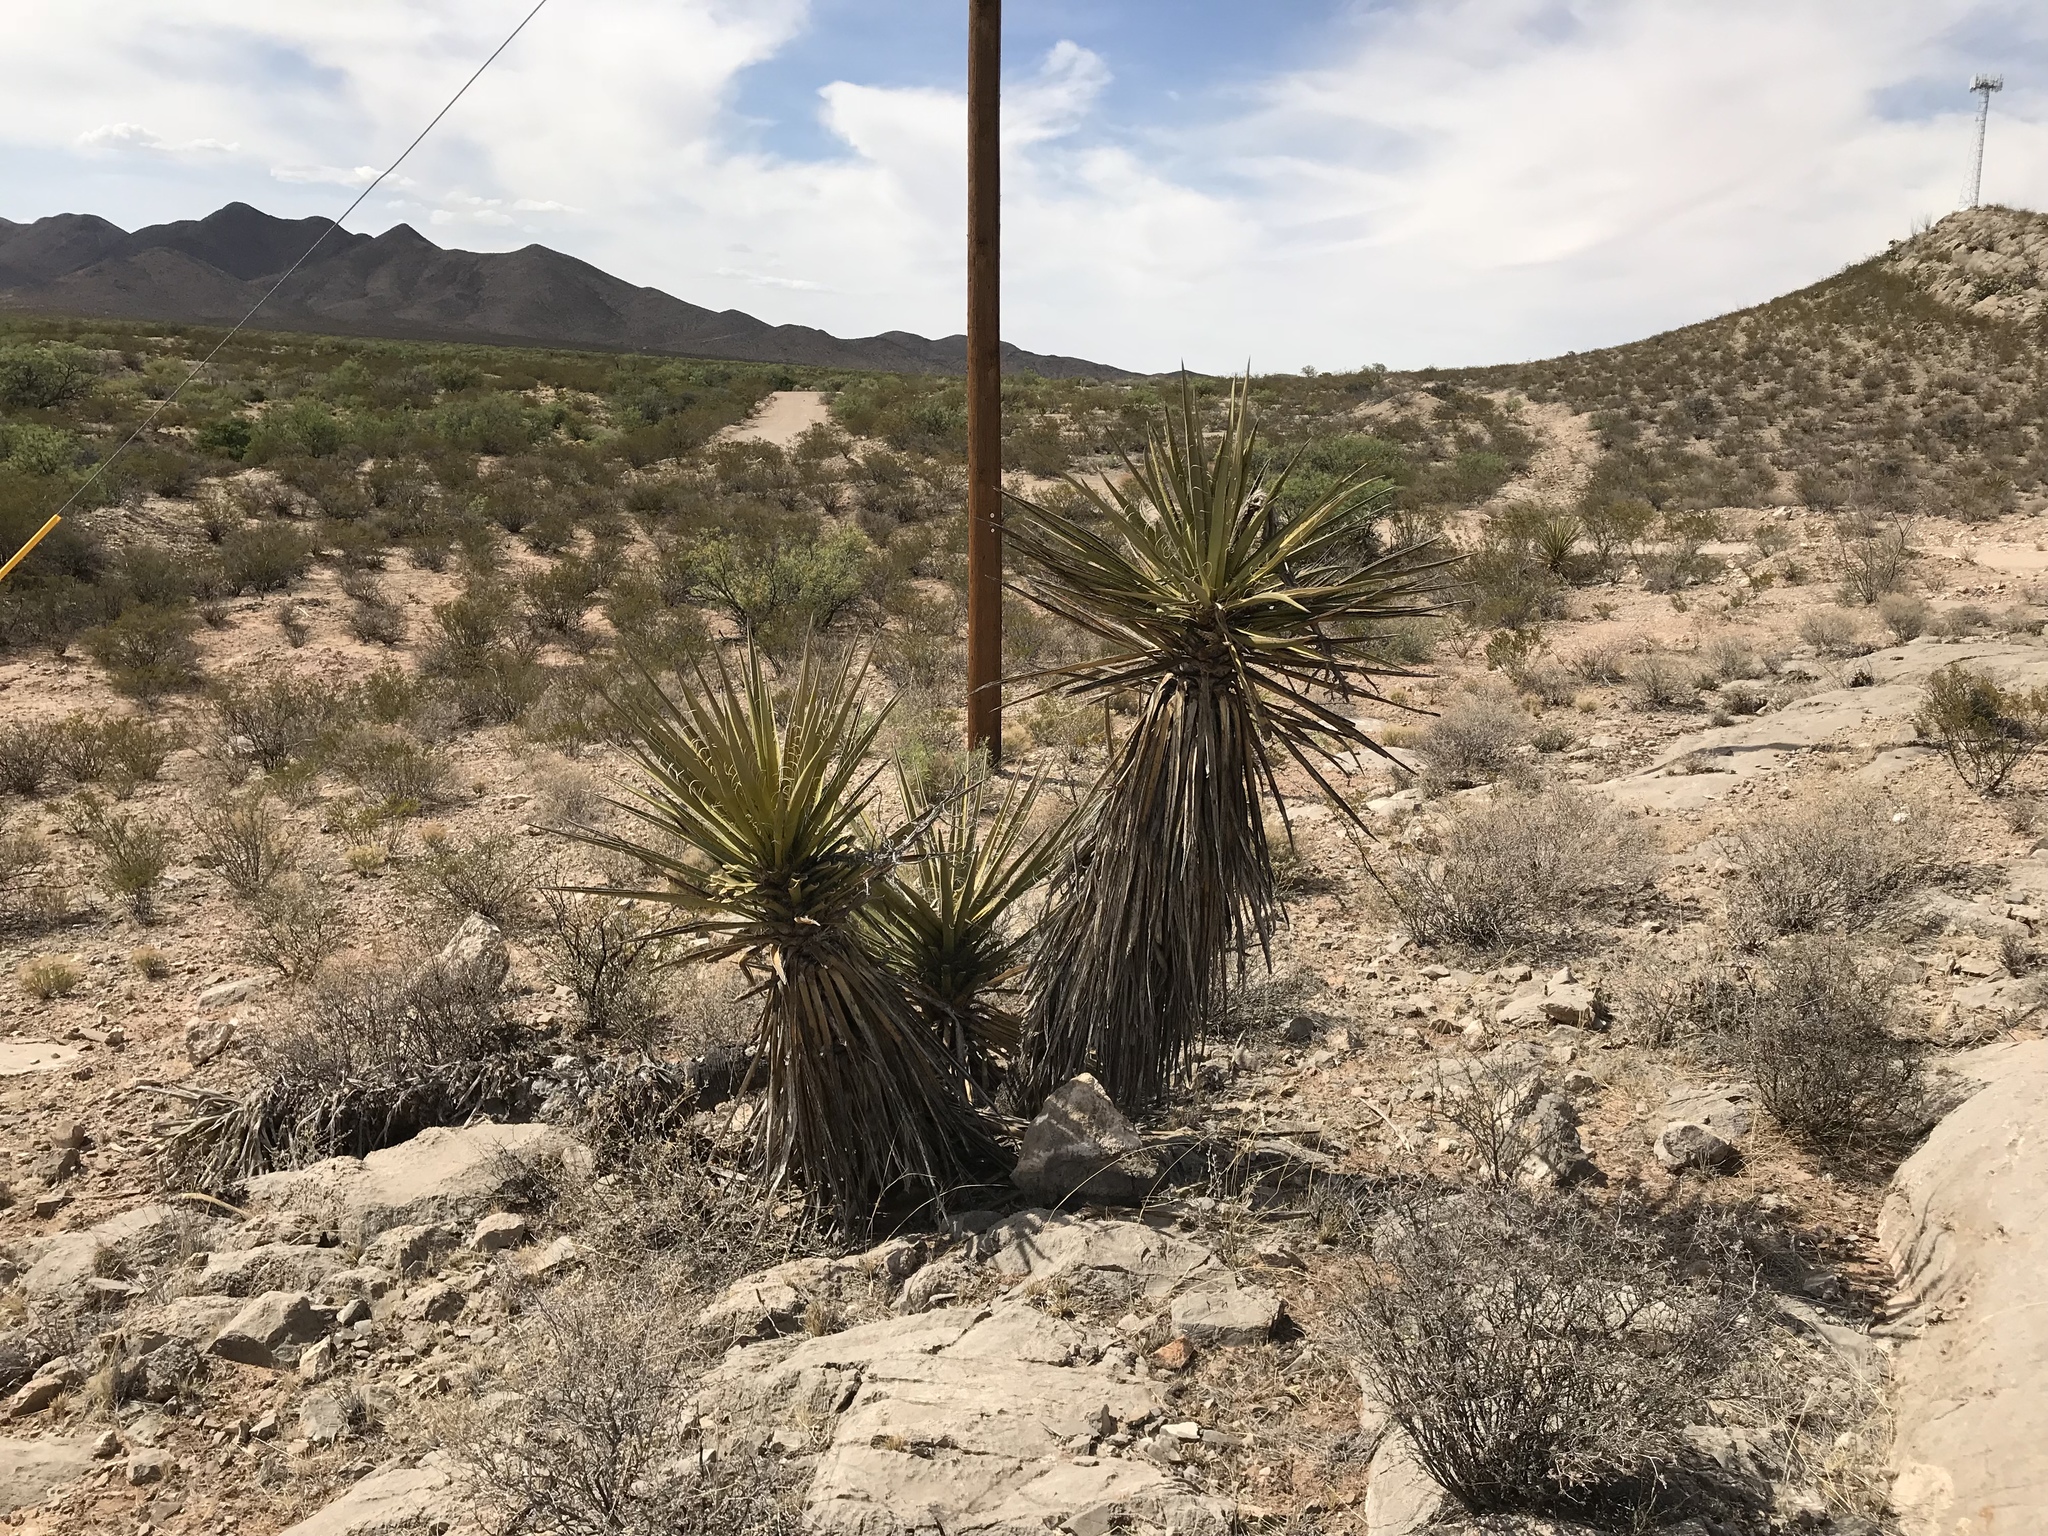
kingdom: Plantae
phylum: Tracheophyta
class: Liliopsida
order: Asparagales
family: Asparagaceae
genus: Yucca
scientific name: Yucca treculiana
